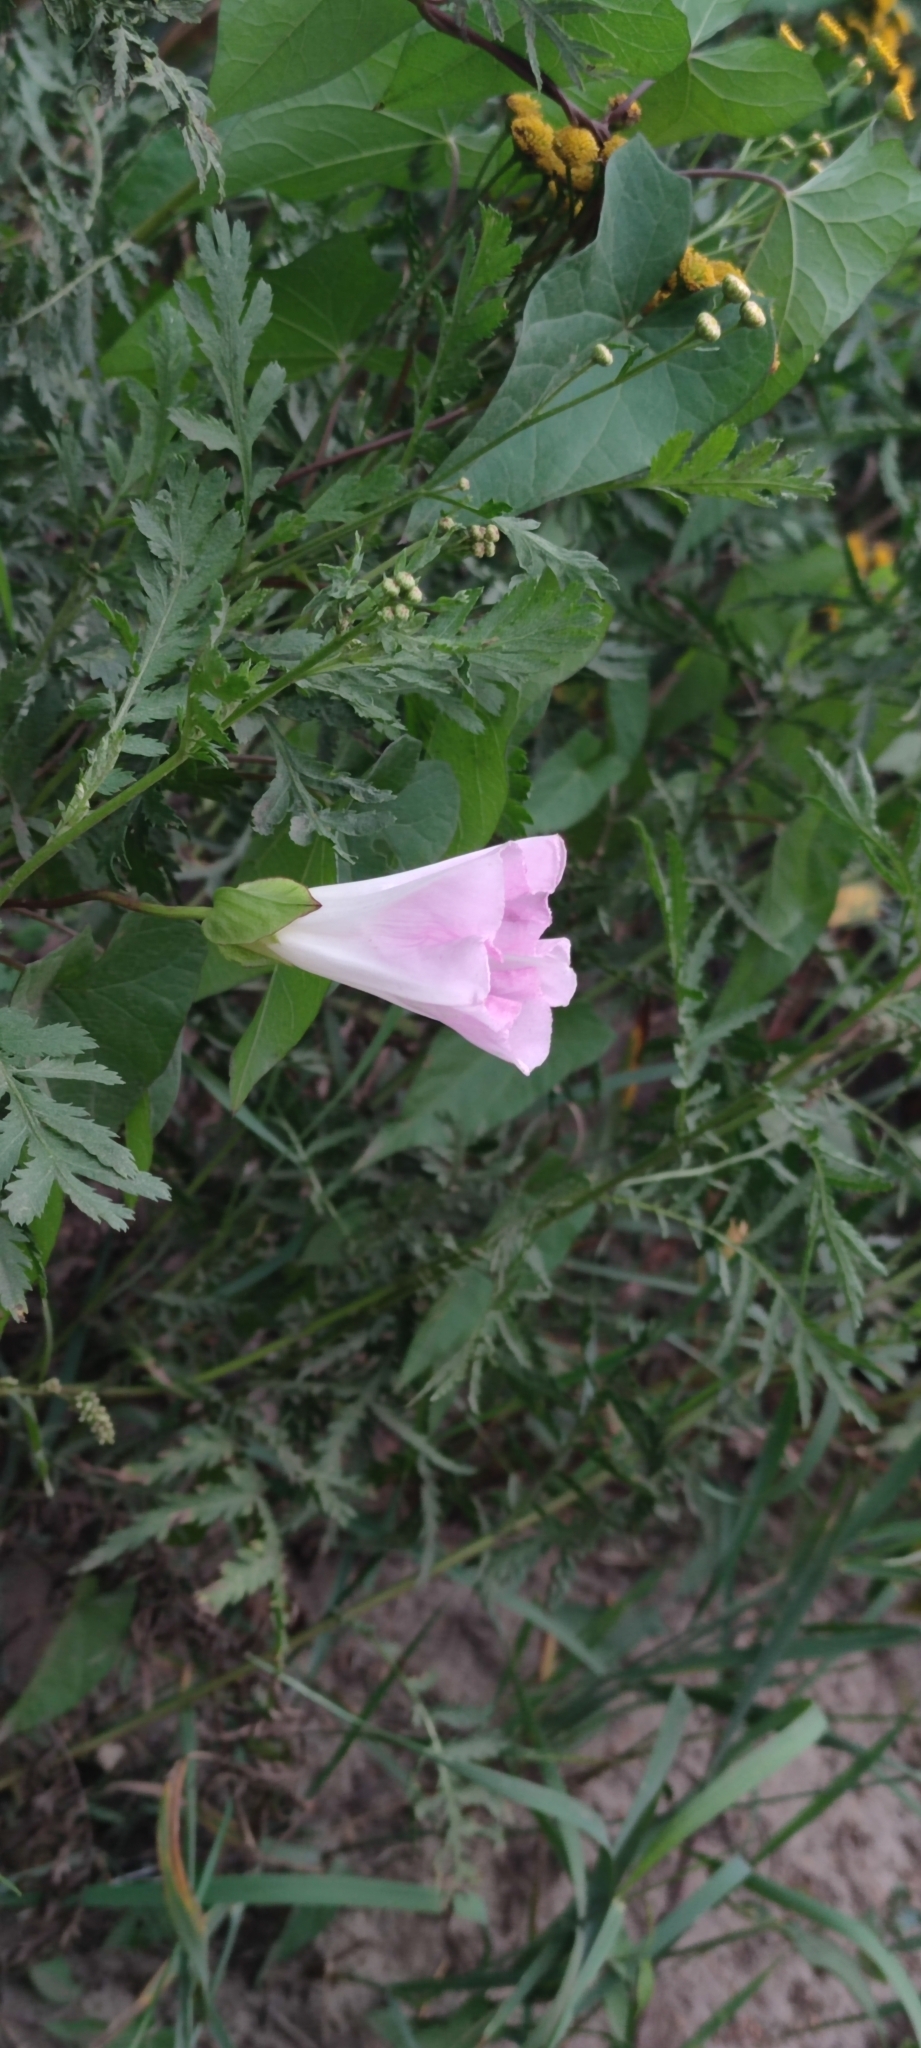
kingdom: Plantae
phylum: Tracheophyta
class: Magnoliopsida
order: Solanales
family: Convolvulaceae
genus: Calystegia
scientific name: Calystegia sepium
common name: Hedge bindweed
